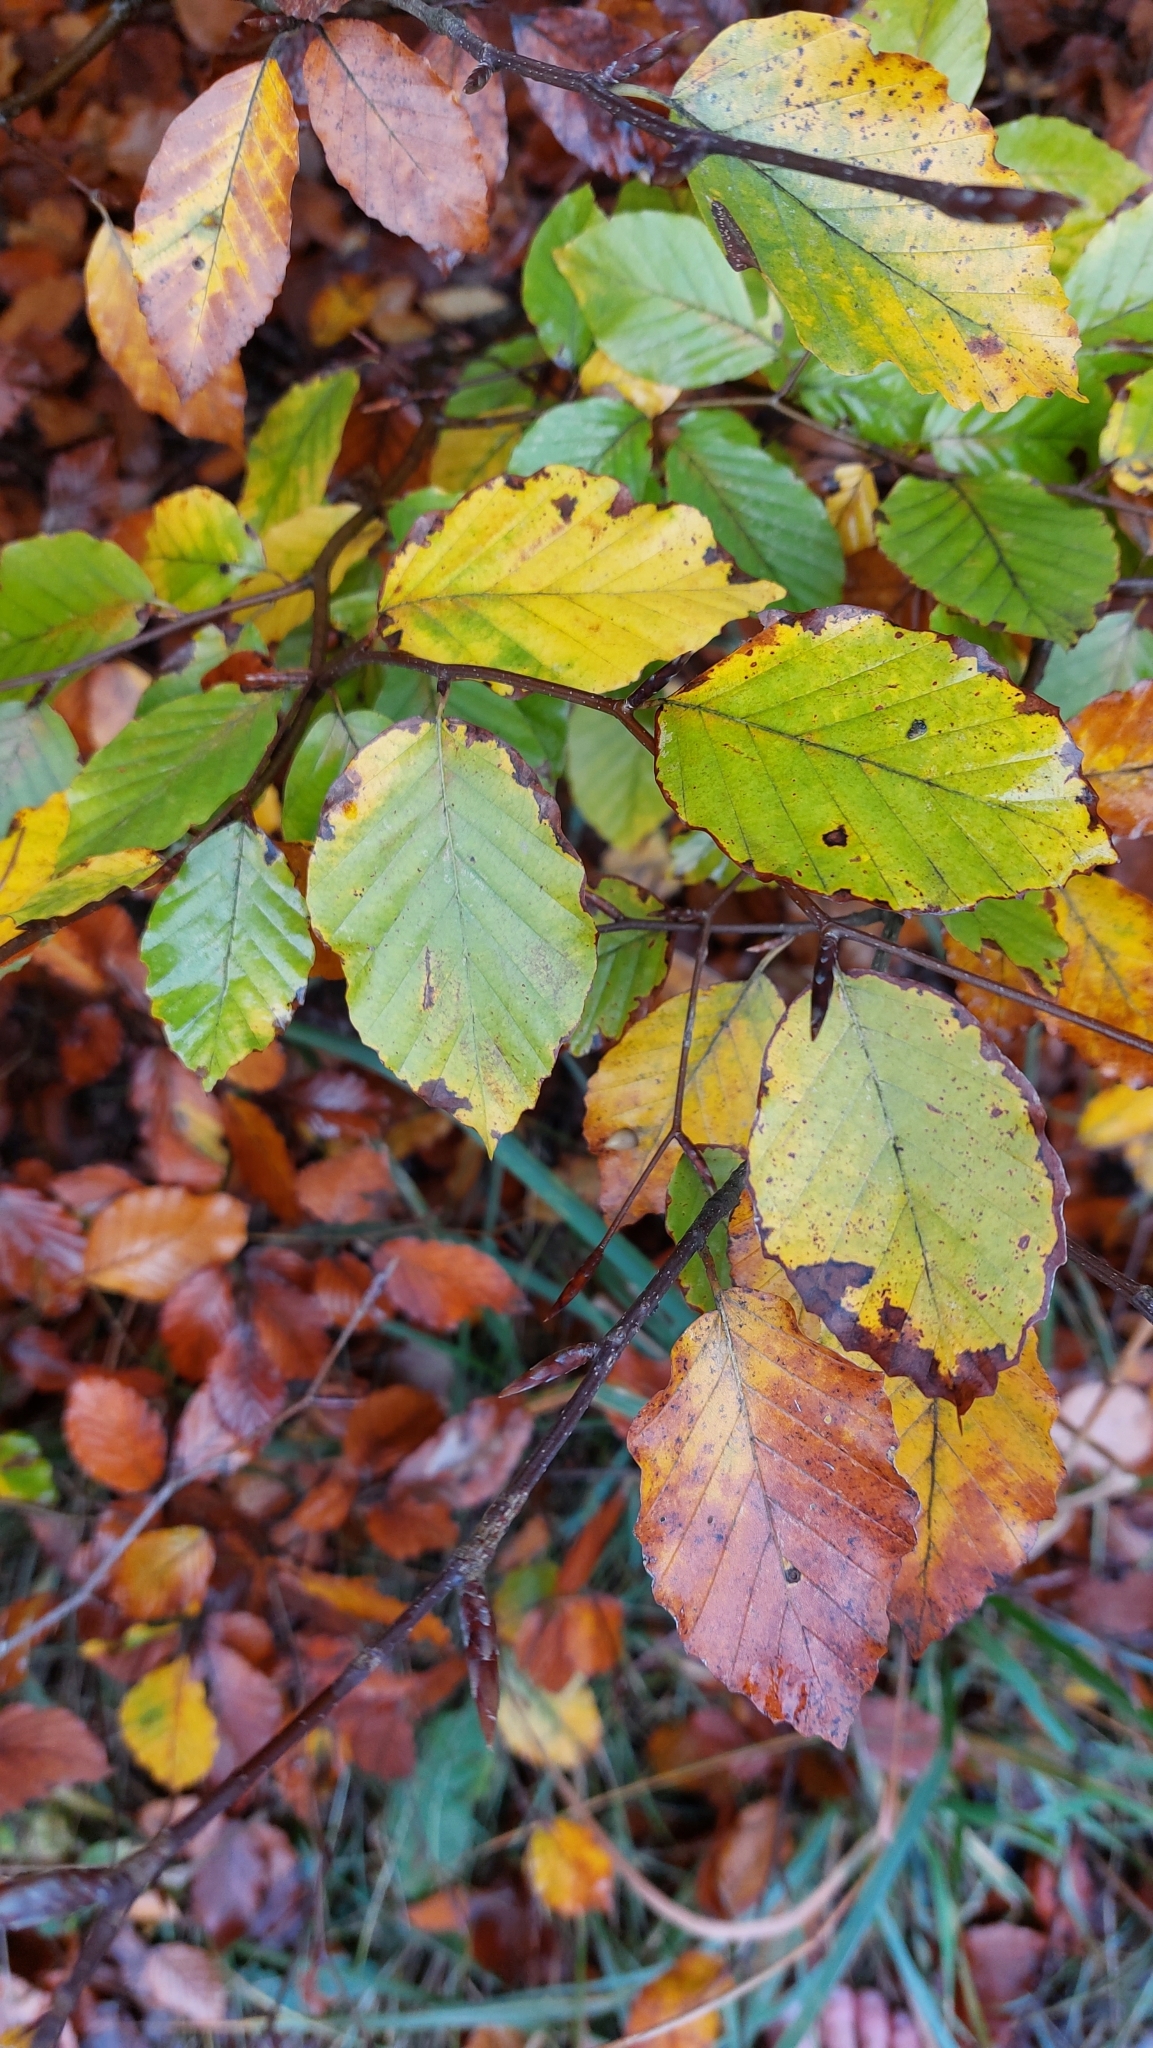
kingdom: Plantae
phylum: Tracheophyta
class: Magnoliopsida
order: Fagales
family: Fagaceae
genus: Fagus
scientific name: Fagus sylvatica
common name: Beech
